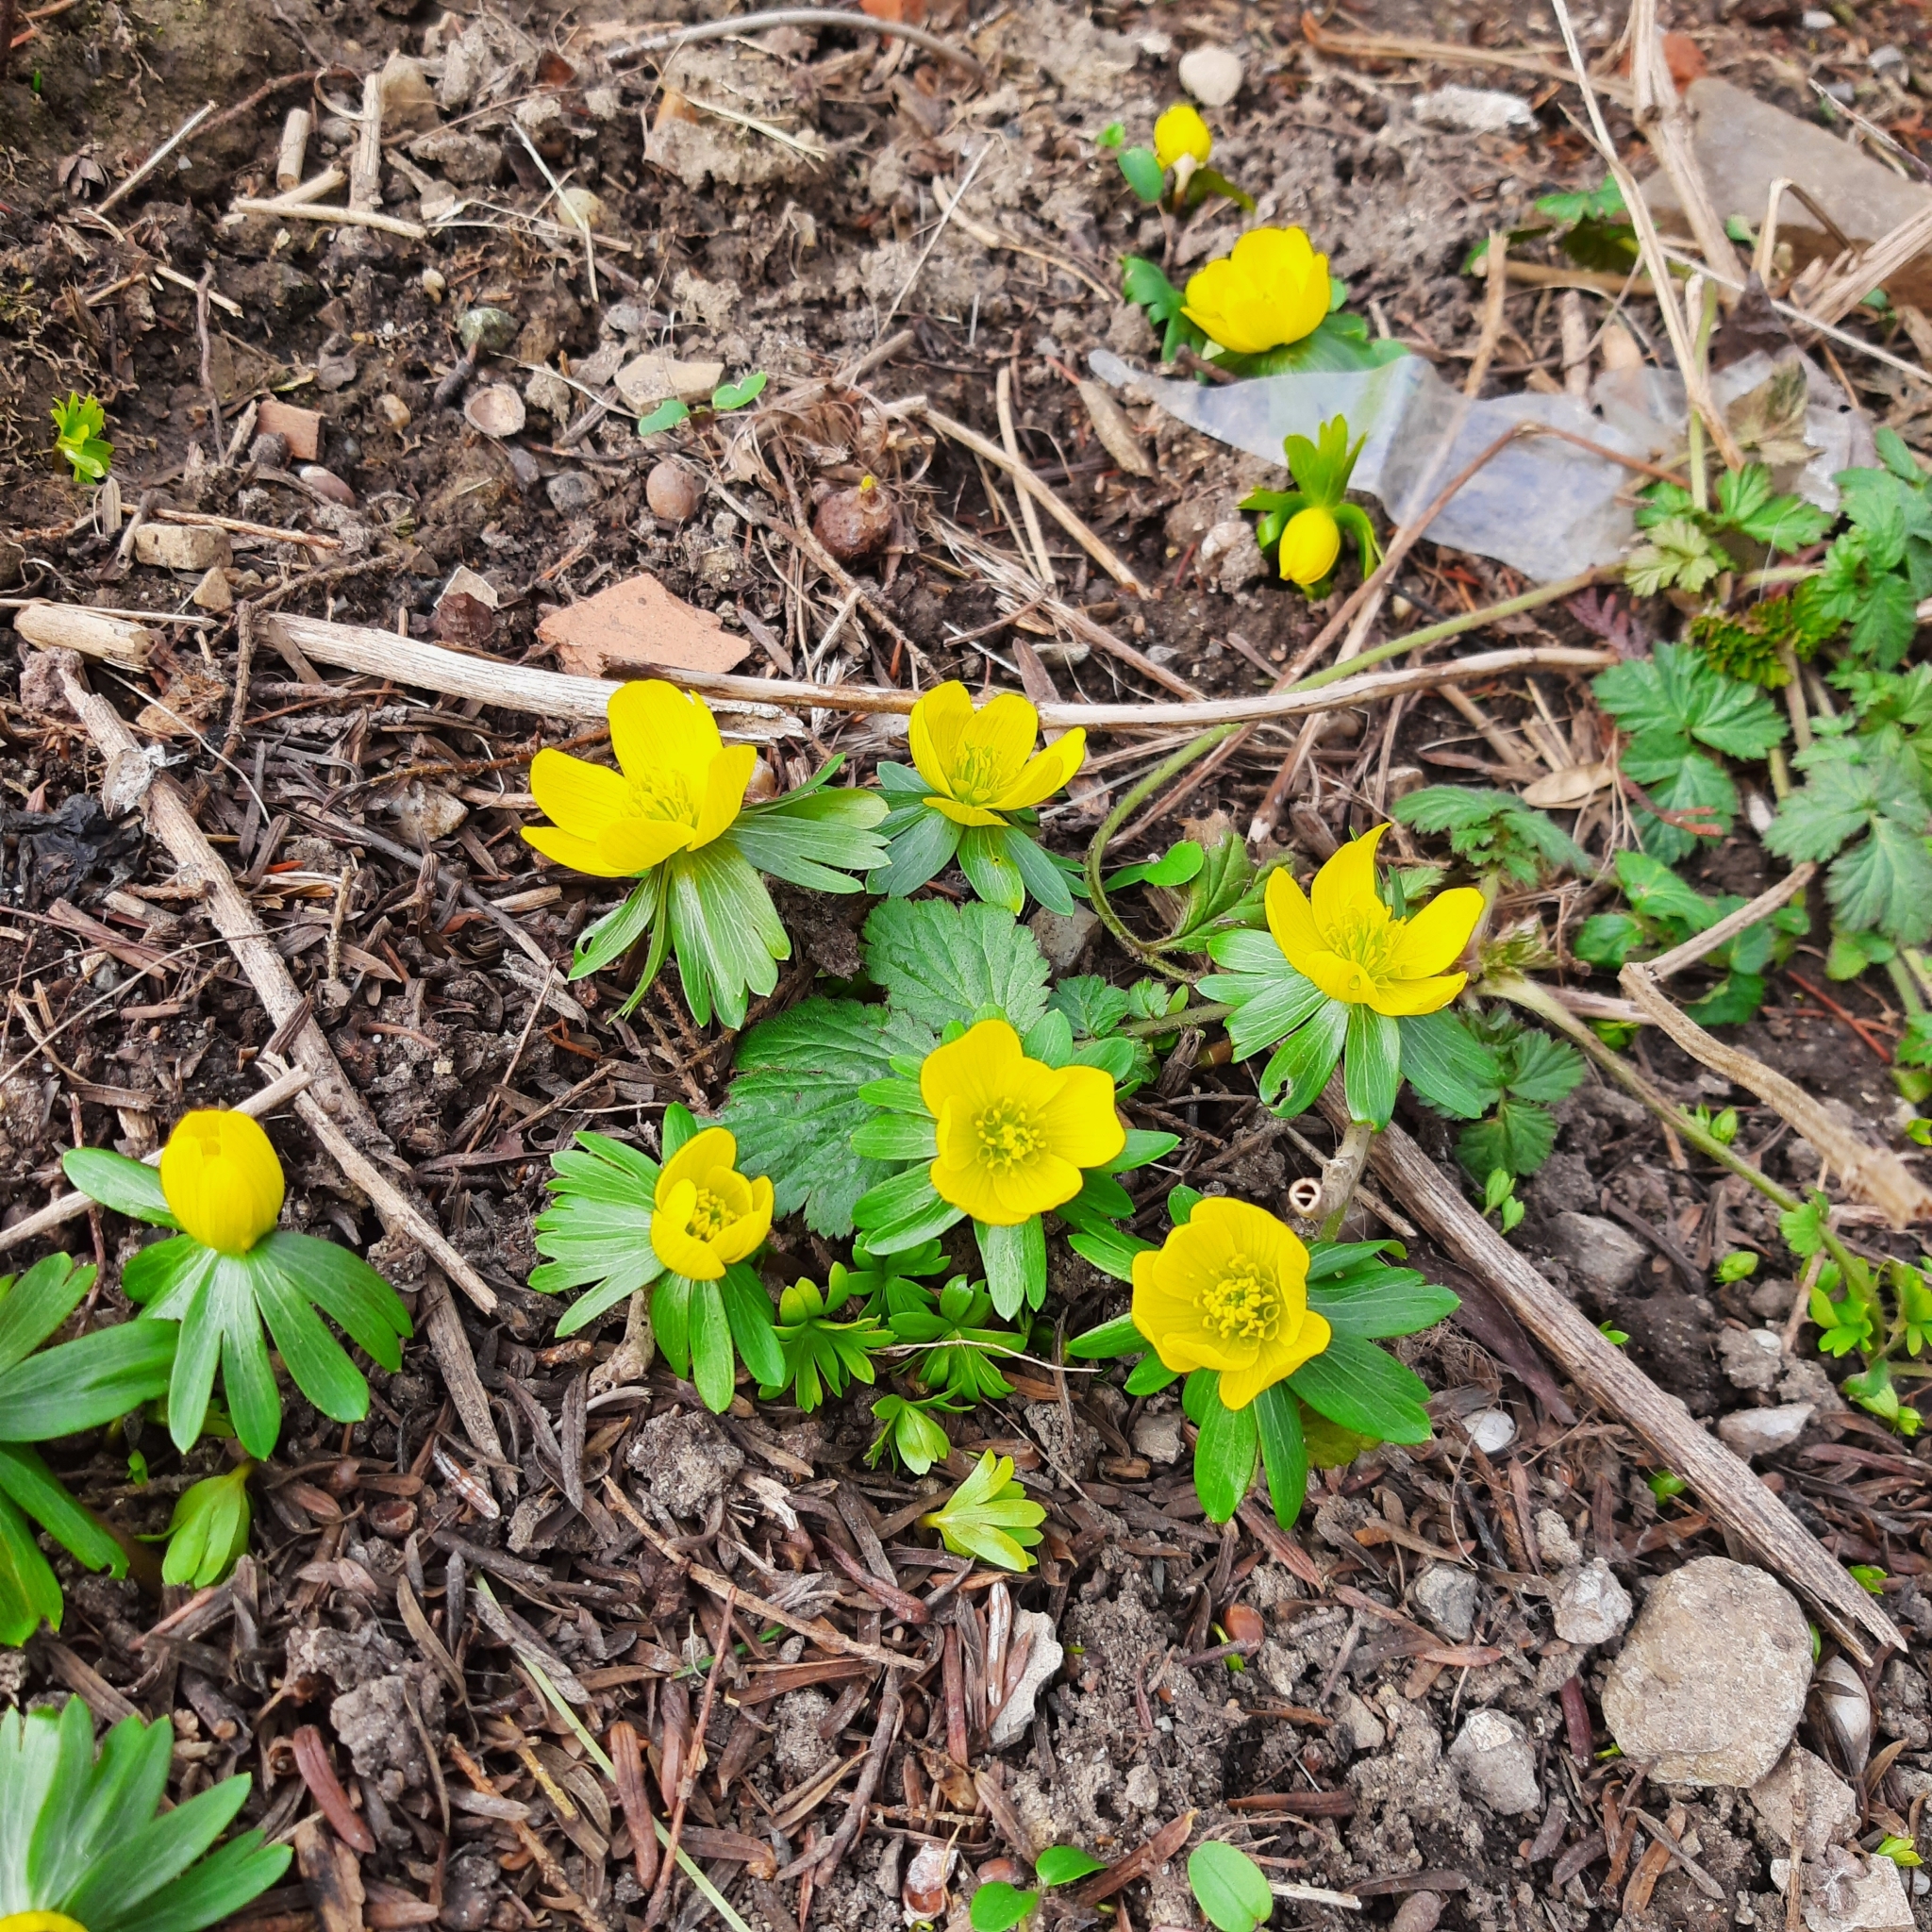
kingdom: Plantae
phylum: Tracheophyta
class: Magnoliopsida
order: Ranunculales
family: Ranunculaceae
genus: Eranthis
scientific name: Eranthis hyemalis
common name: Winter aconite
